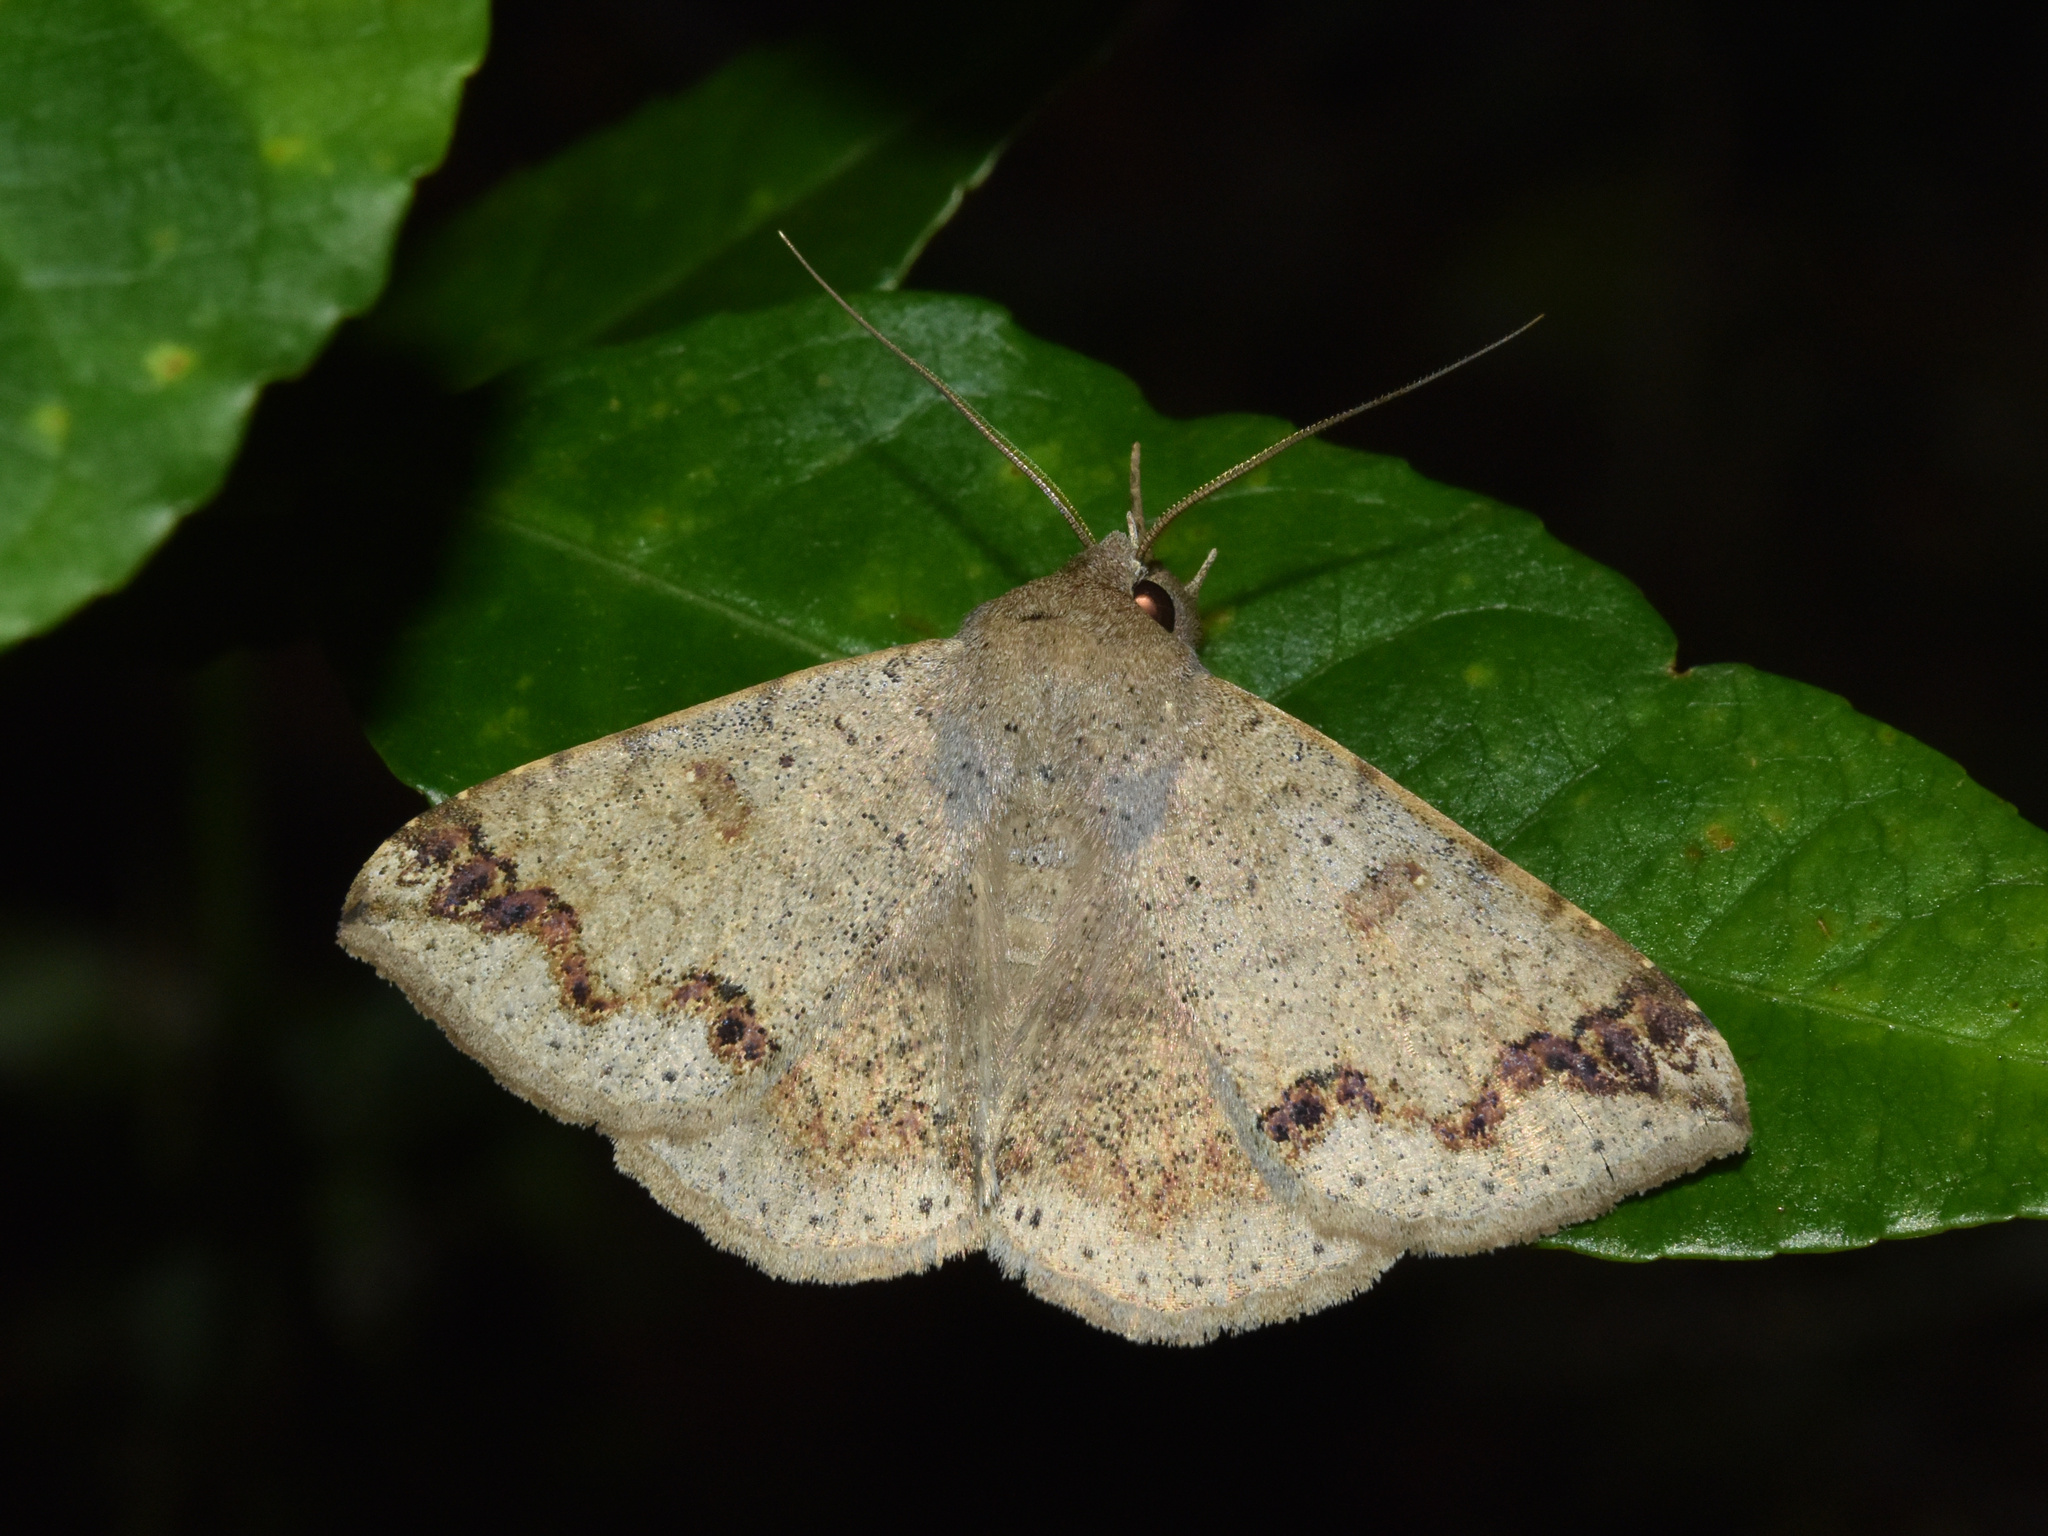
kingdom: Animalia
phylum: Arthropoda
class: Insecta
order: Lepidoptera
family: Erebidae
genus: Ericeia
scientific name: Ericeia inangulata
